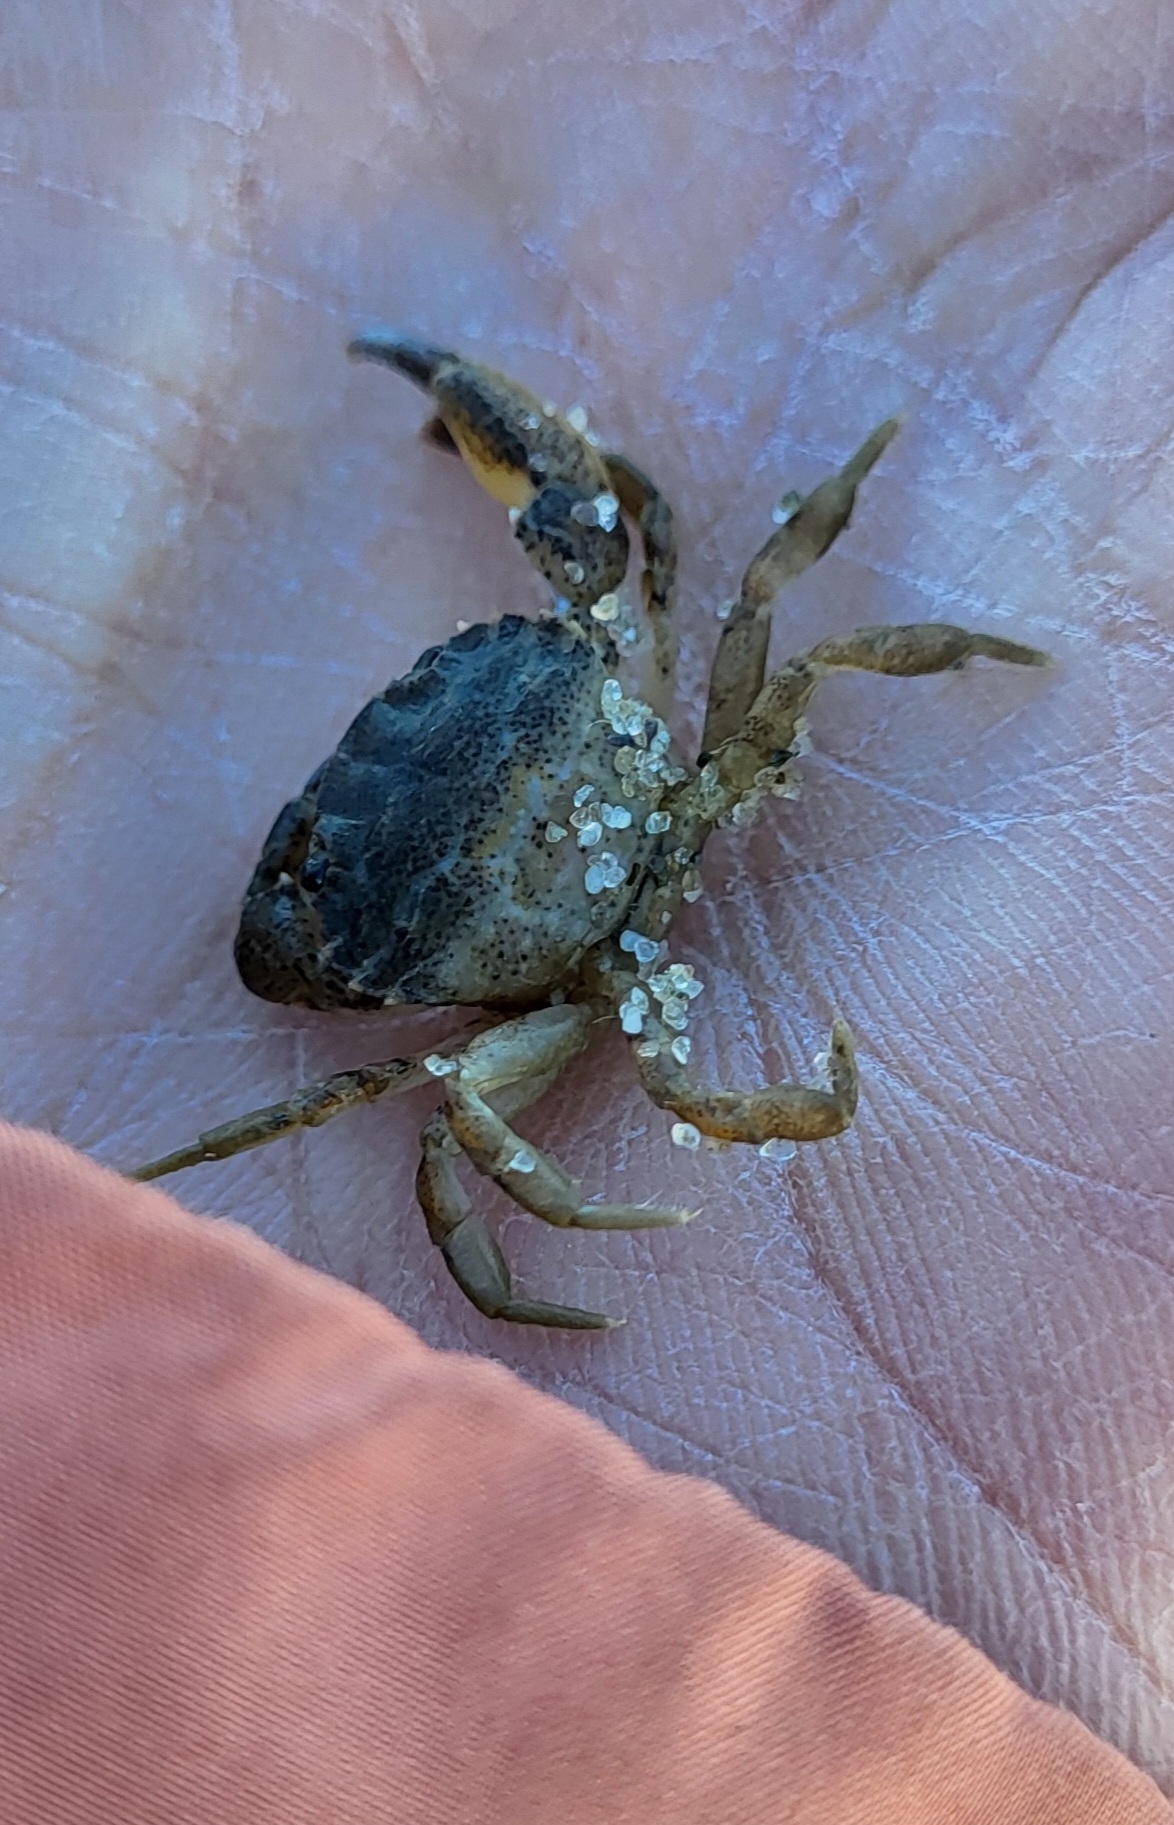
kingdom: Animalia
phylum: Arthropoda
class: Malacostraca
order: Decapoda
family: Panopeidae
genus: Dyspanopeus
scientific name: Dyspanopeus sayi
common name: Say mud crab
